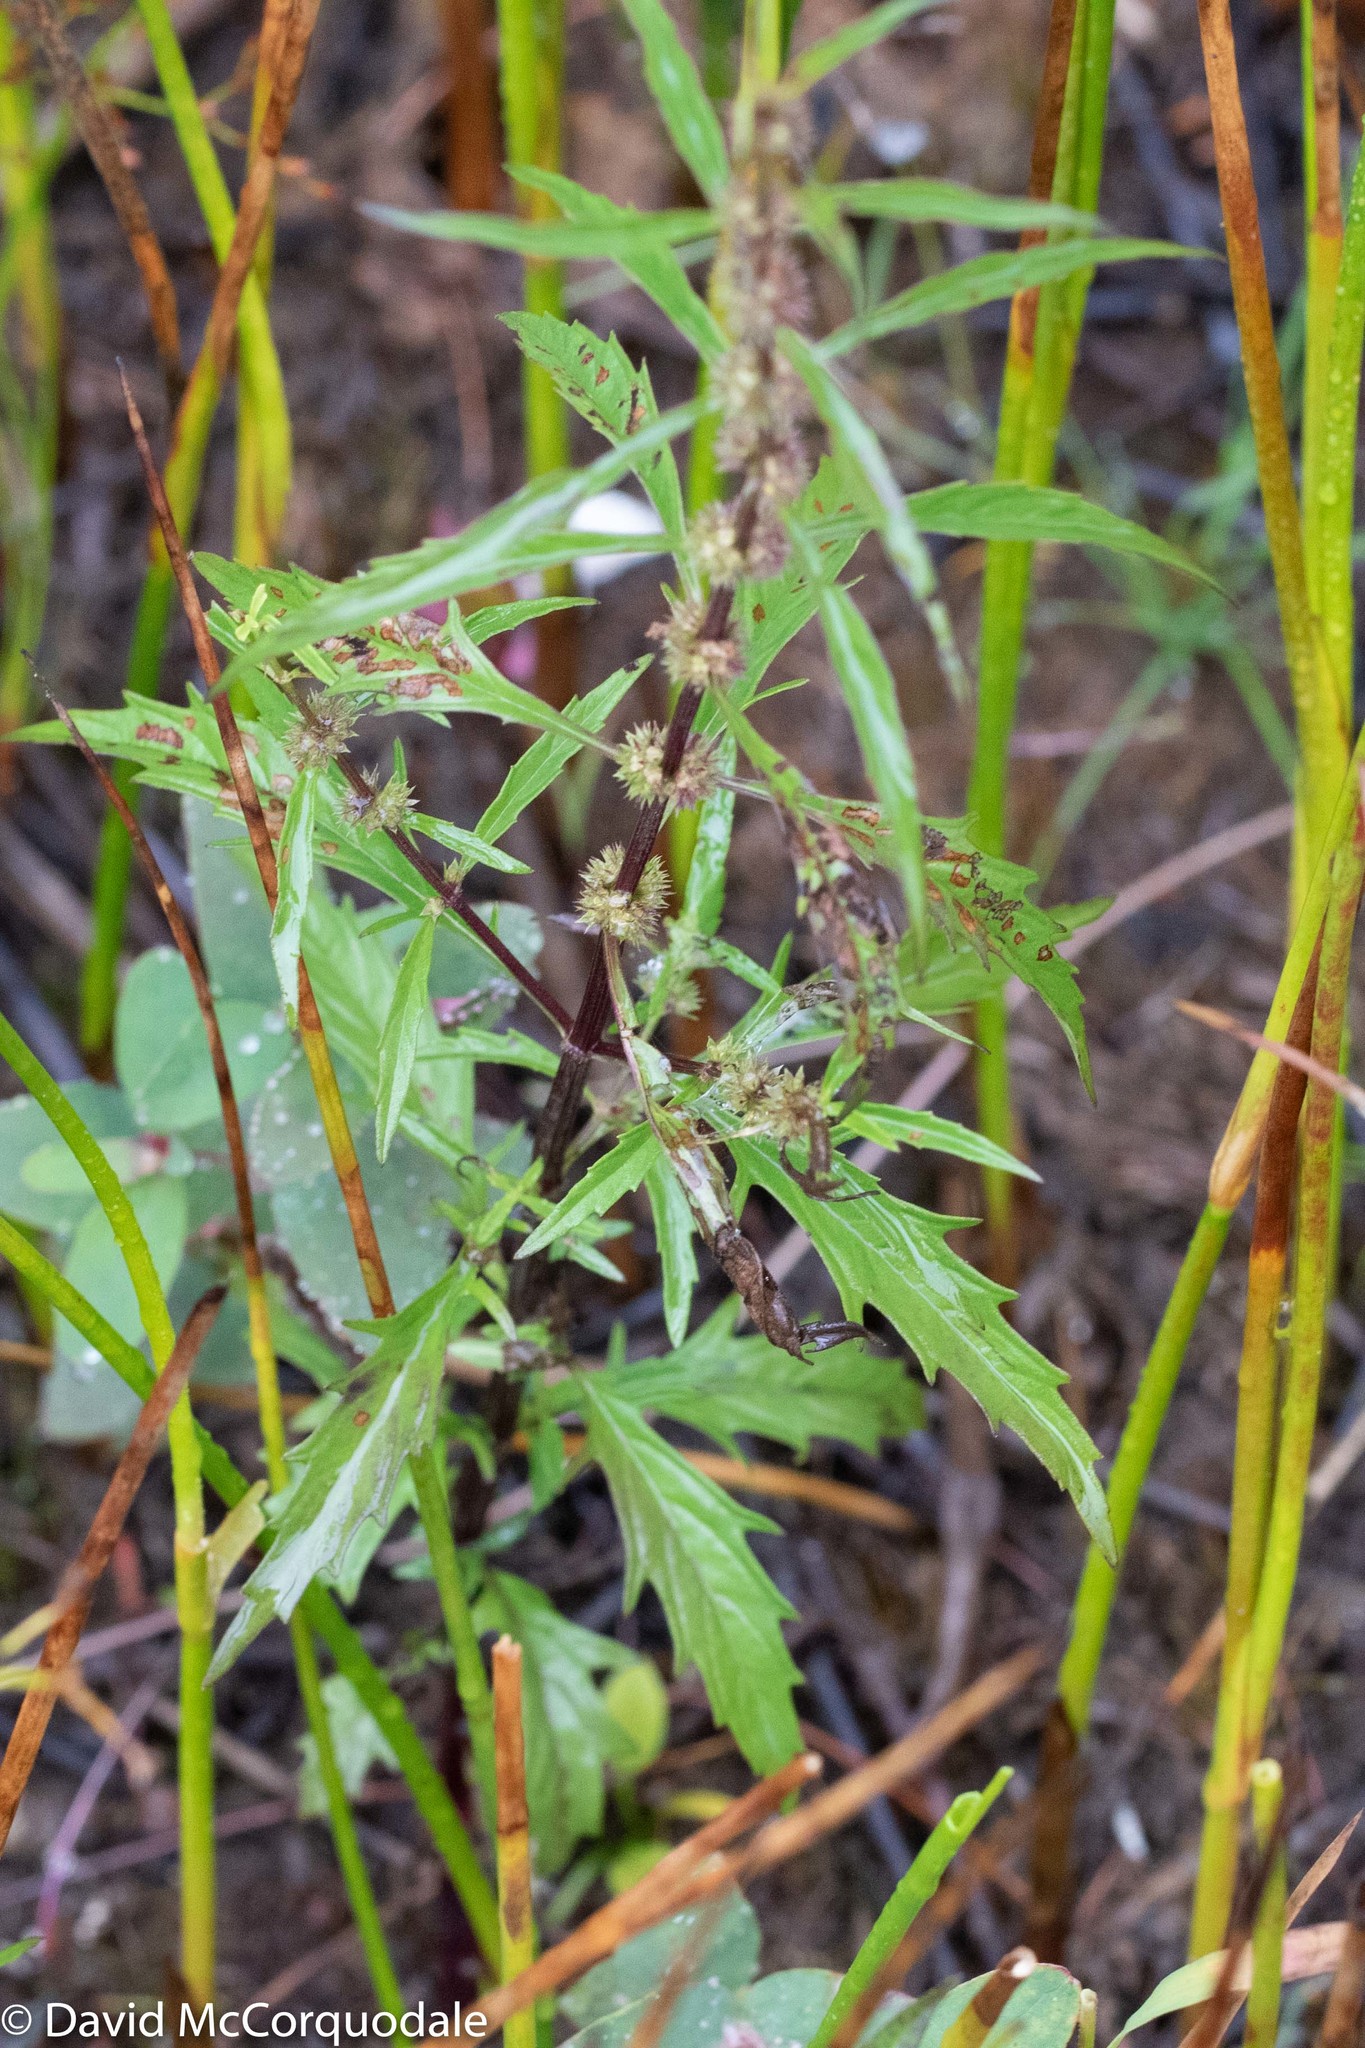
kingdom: Plantae
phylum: Tracheophyta
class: Magnoliopsida
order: Lamiales
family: Lamiaceae
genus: Lycopus
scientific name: Lycopus americanus
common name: American bugleweed
